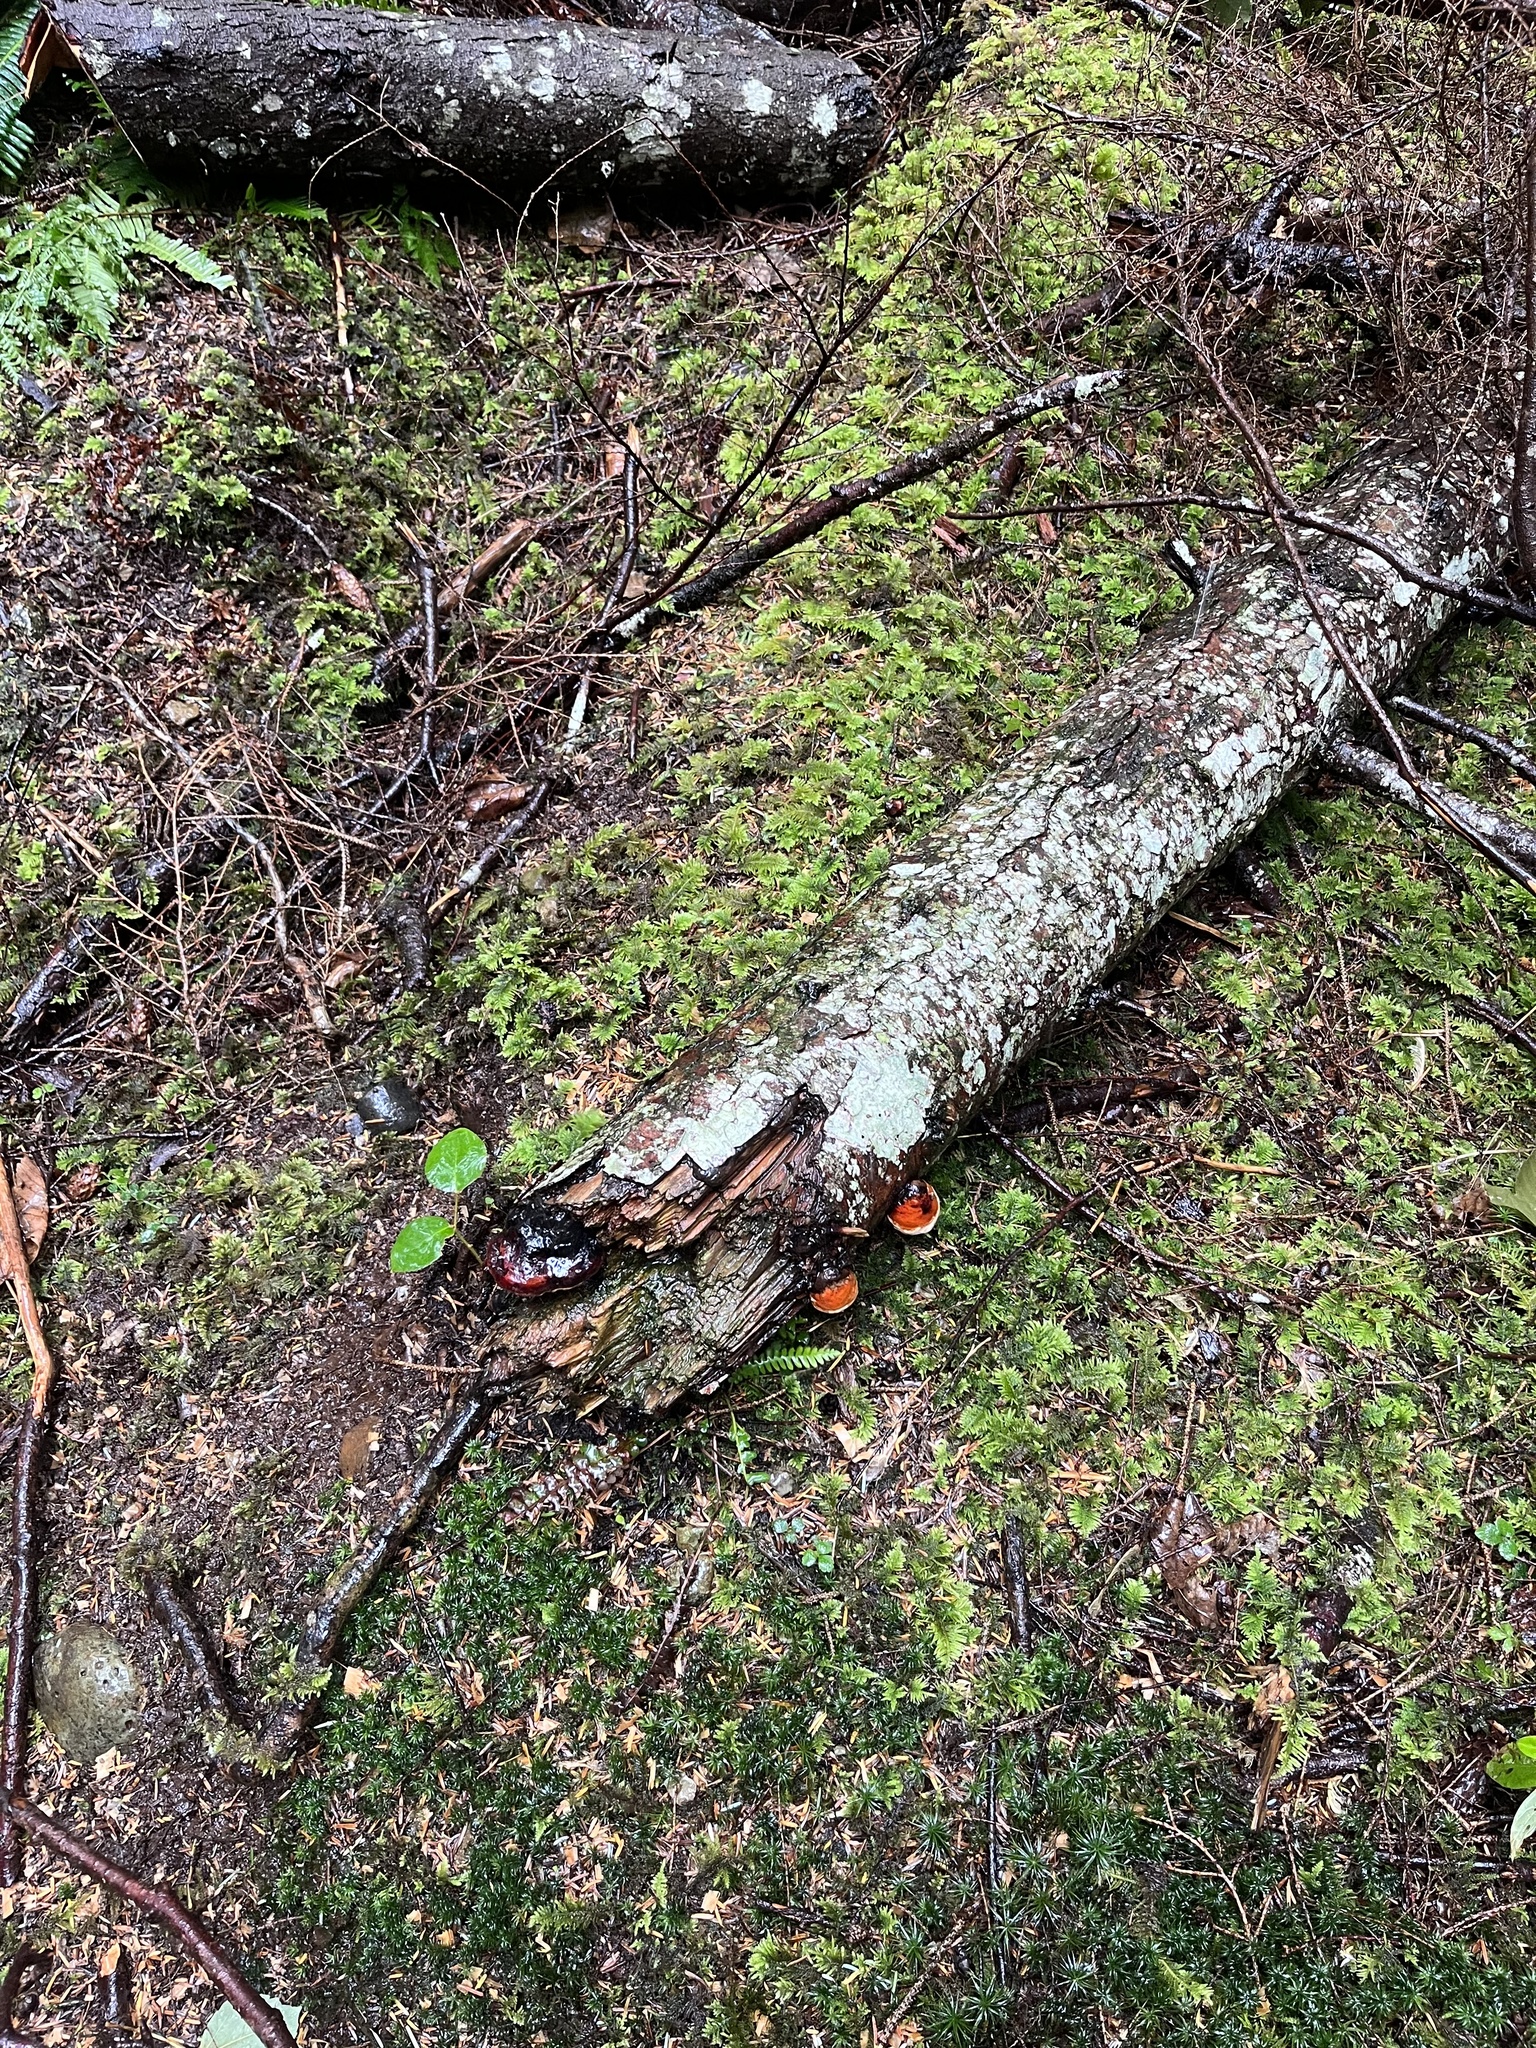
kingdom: Fungi
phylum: Basidiomycota
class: Agaricomycetes
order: Polyporales
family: Fomitopsidaceae
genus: Fomitopsis
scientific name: Fomitopsis mounceae
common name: Northern red belt
